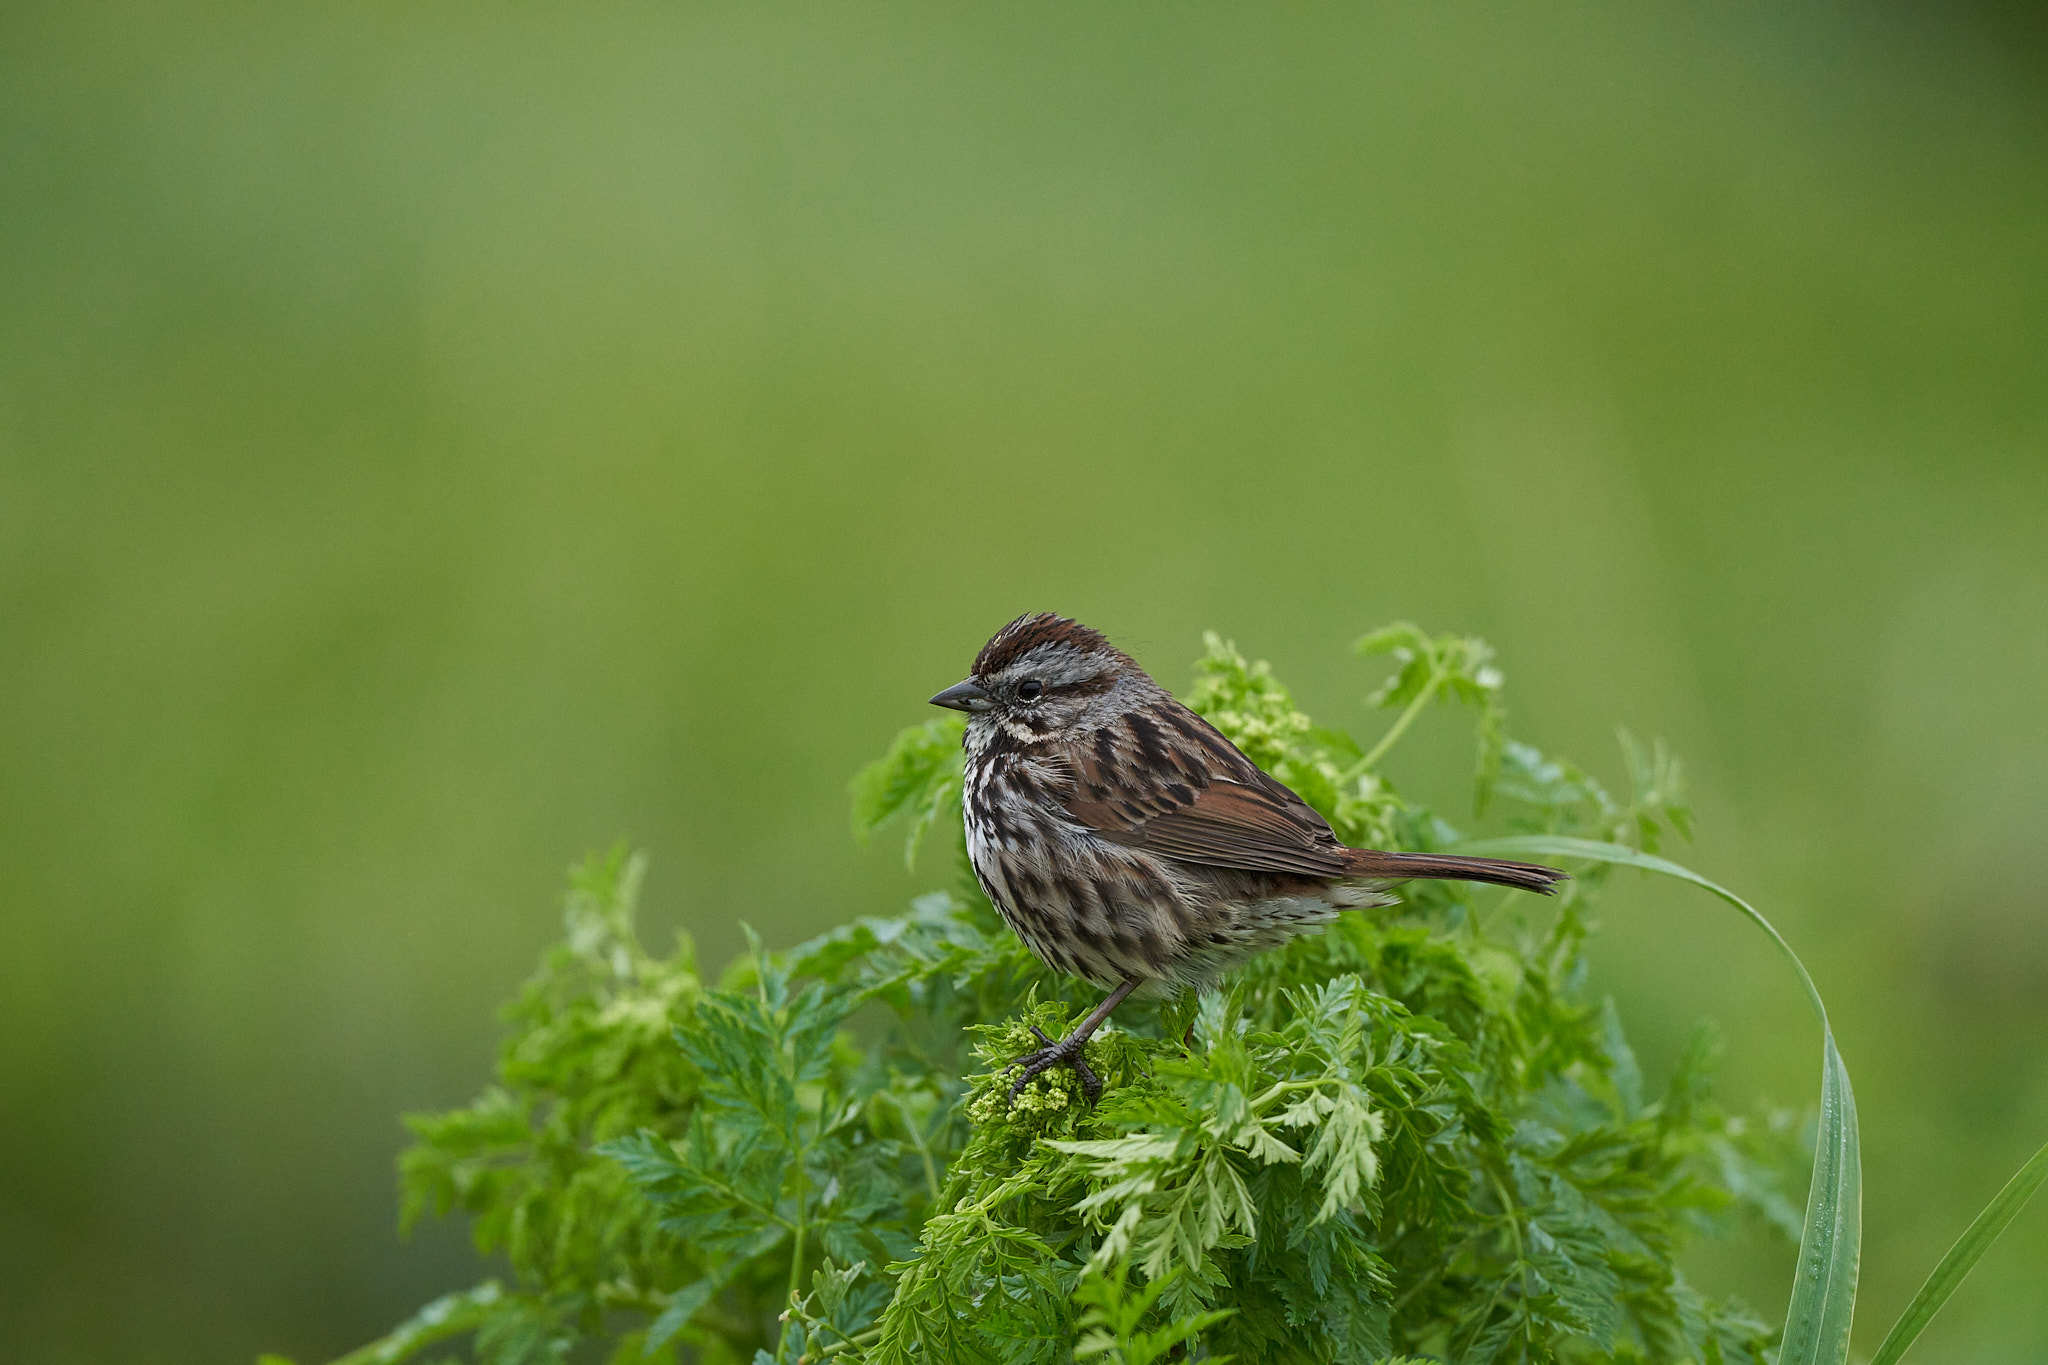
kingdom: Animalia
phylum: Chordata
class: Aves
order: Passeriformes
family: Passerellidae
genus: Melospiza
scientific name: Melospiza melodia
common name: Song sparrow
